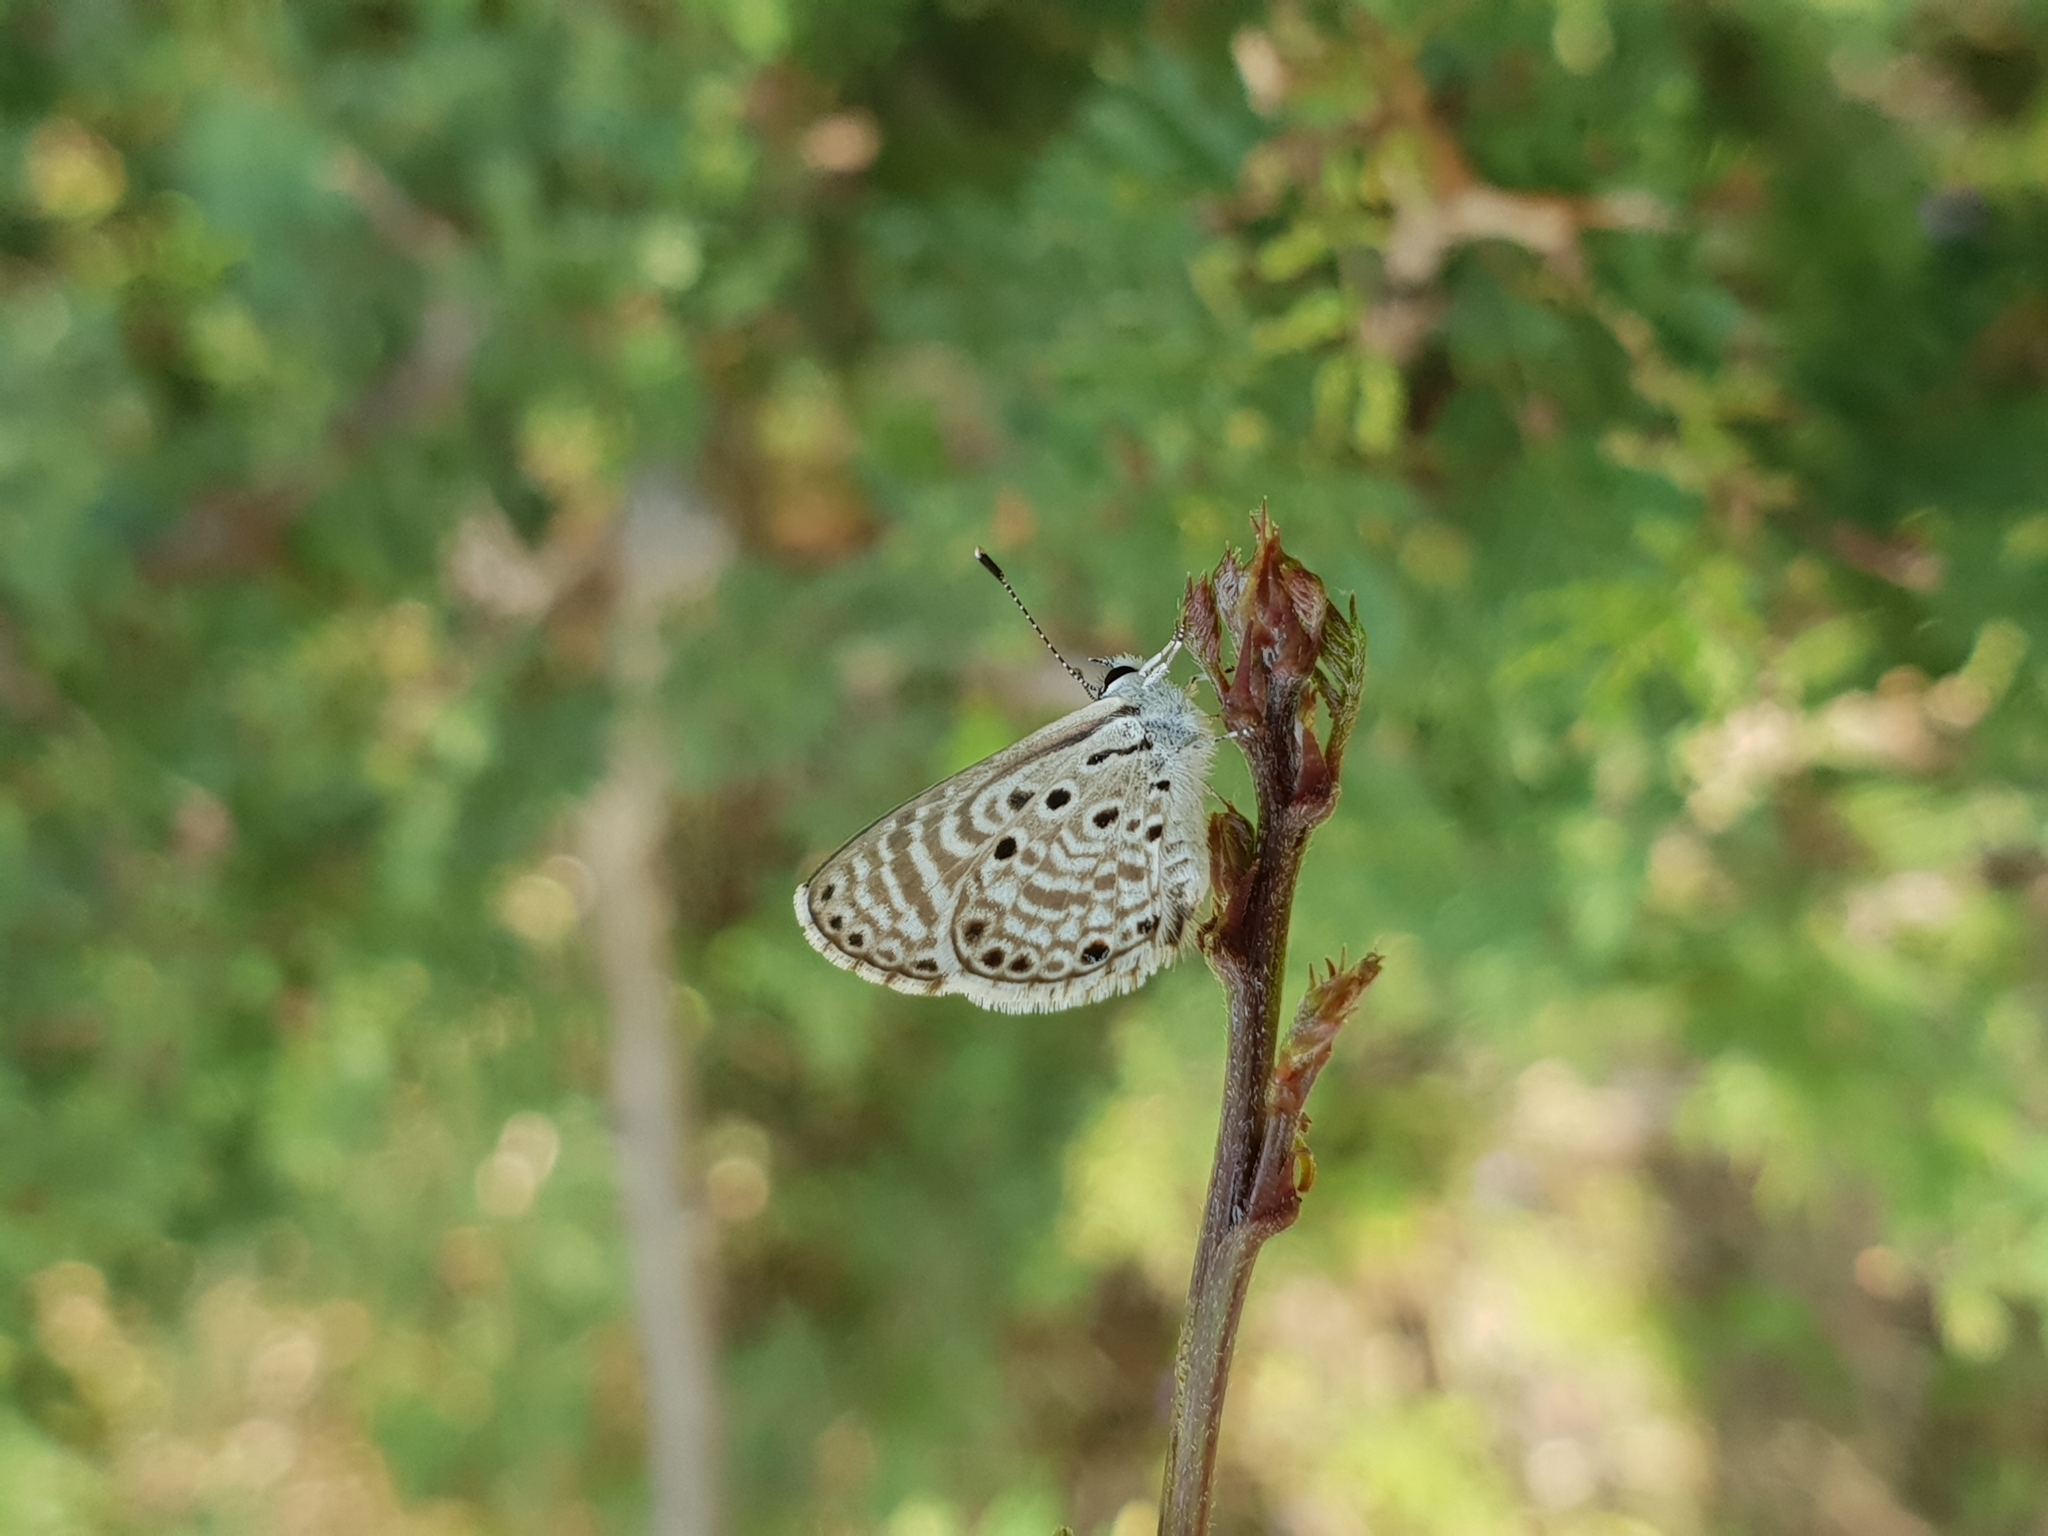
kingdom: Animalia
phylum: Arthropoda
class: Insecta
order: Lepidoptera
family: Lycaenidae
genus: Azanus
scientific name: Azanus jesous
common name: African babul blue
